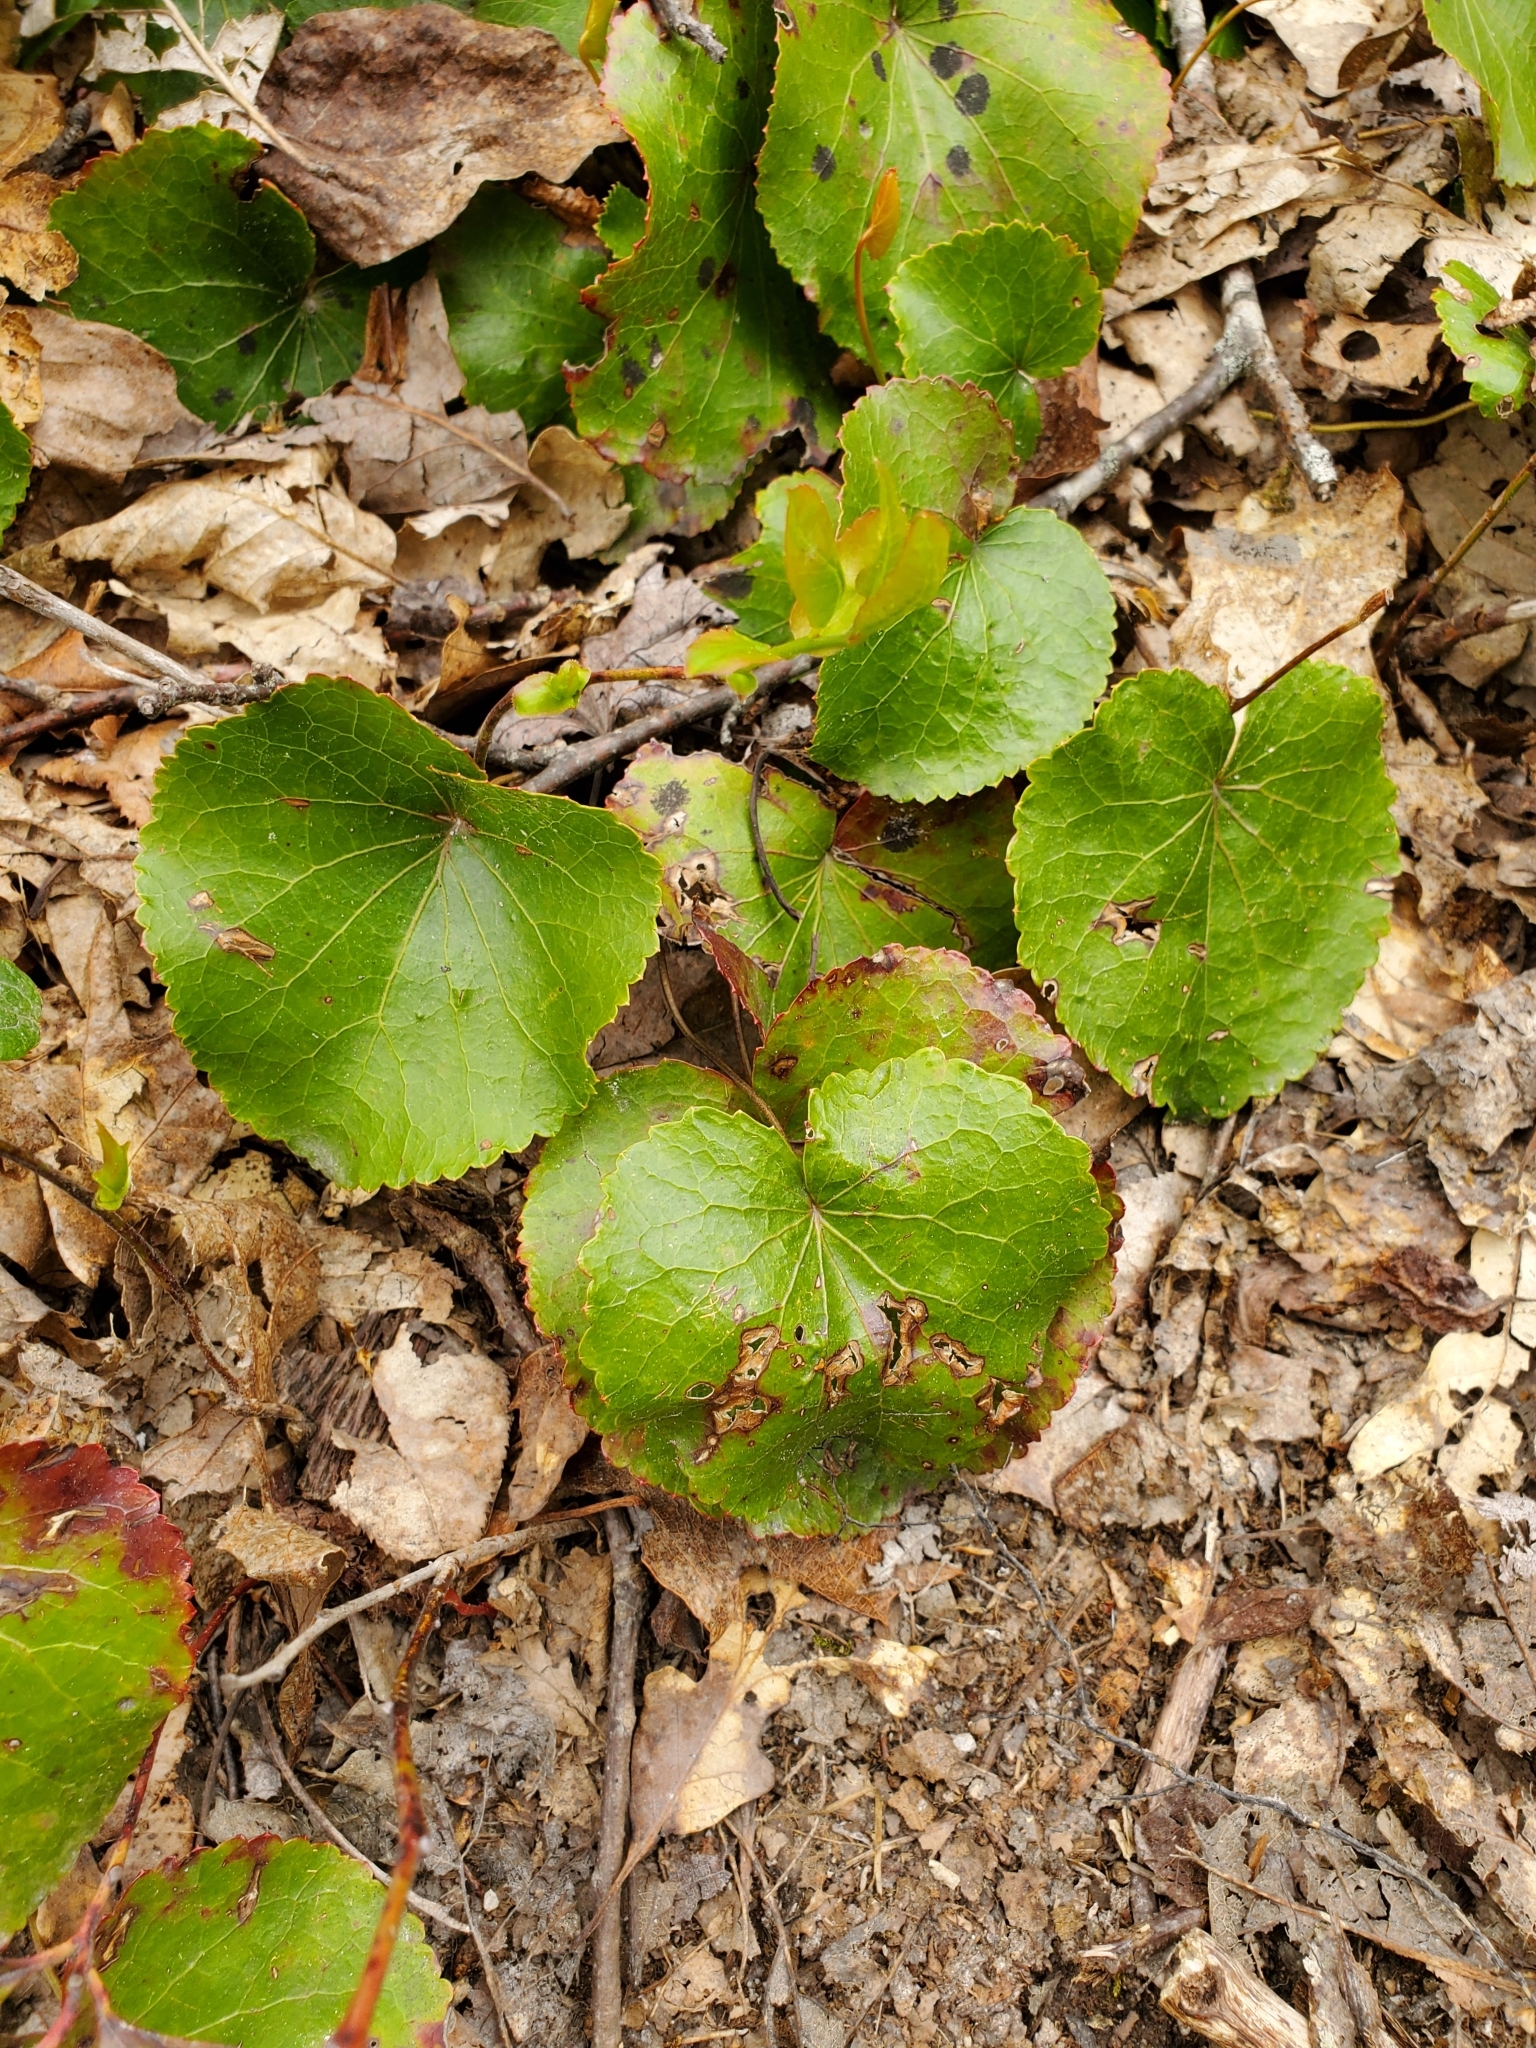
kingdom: Plantae
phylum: Tracheophyta
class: Magnoliopsida
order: Ericales
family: Diapensiaceae
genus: Galax
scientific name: Galax urceolata
